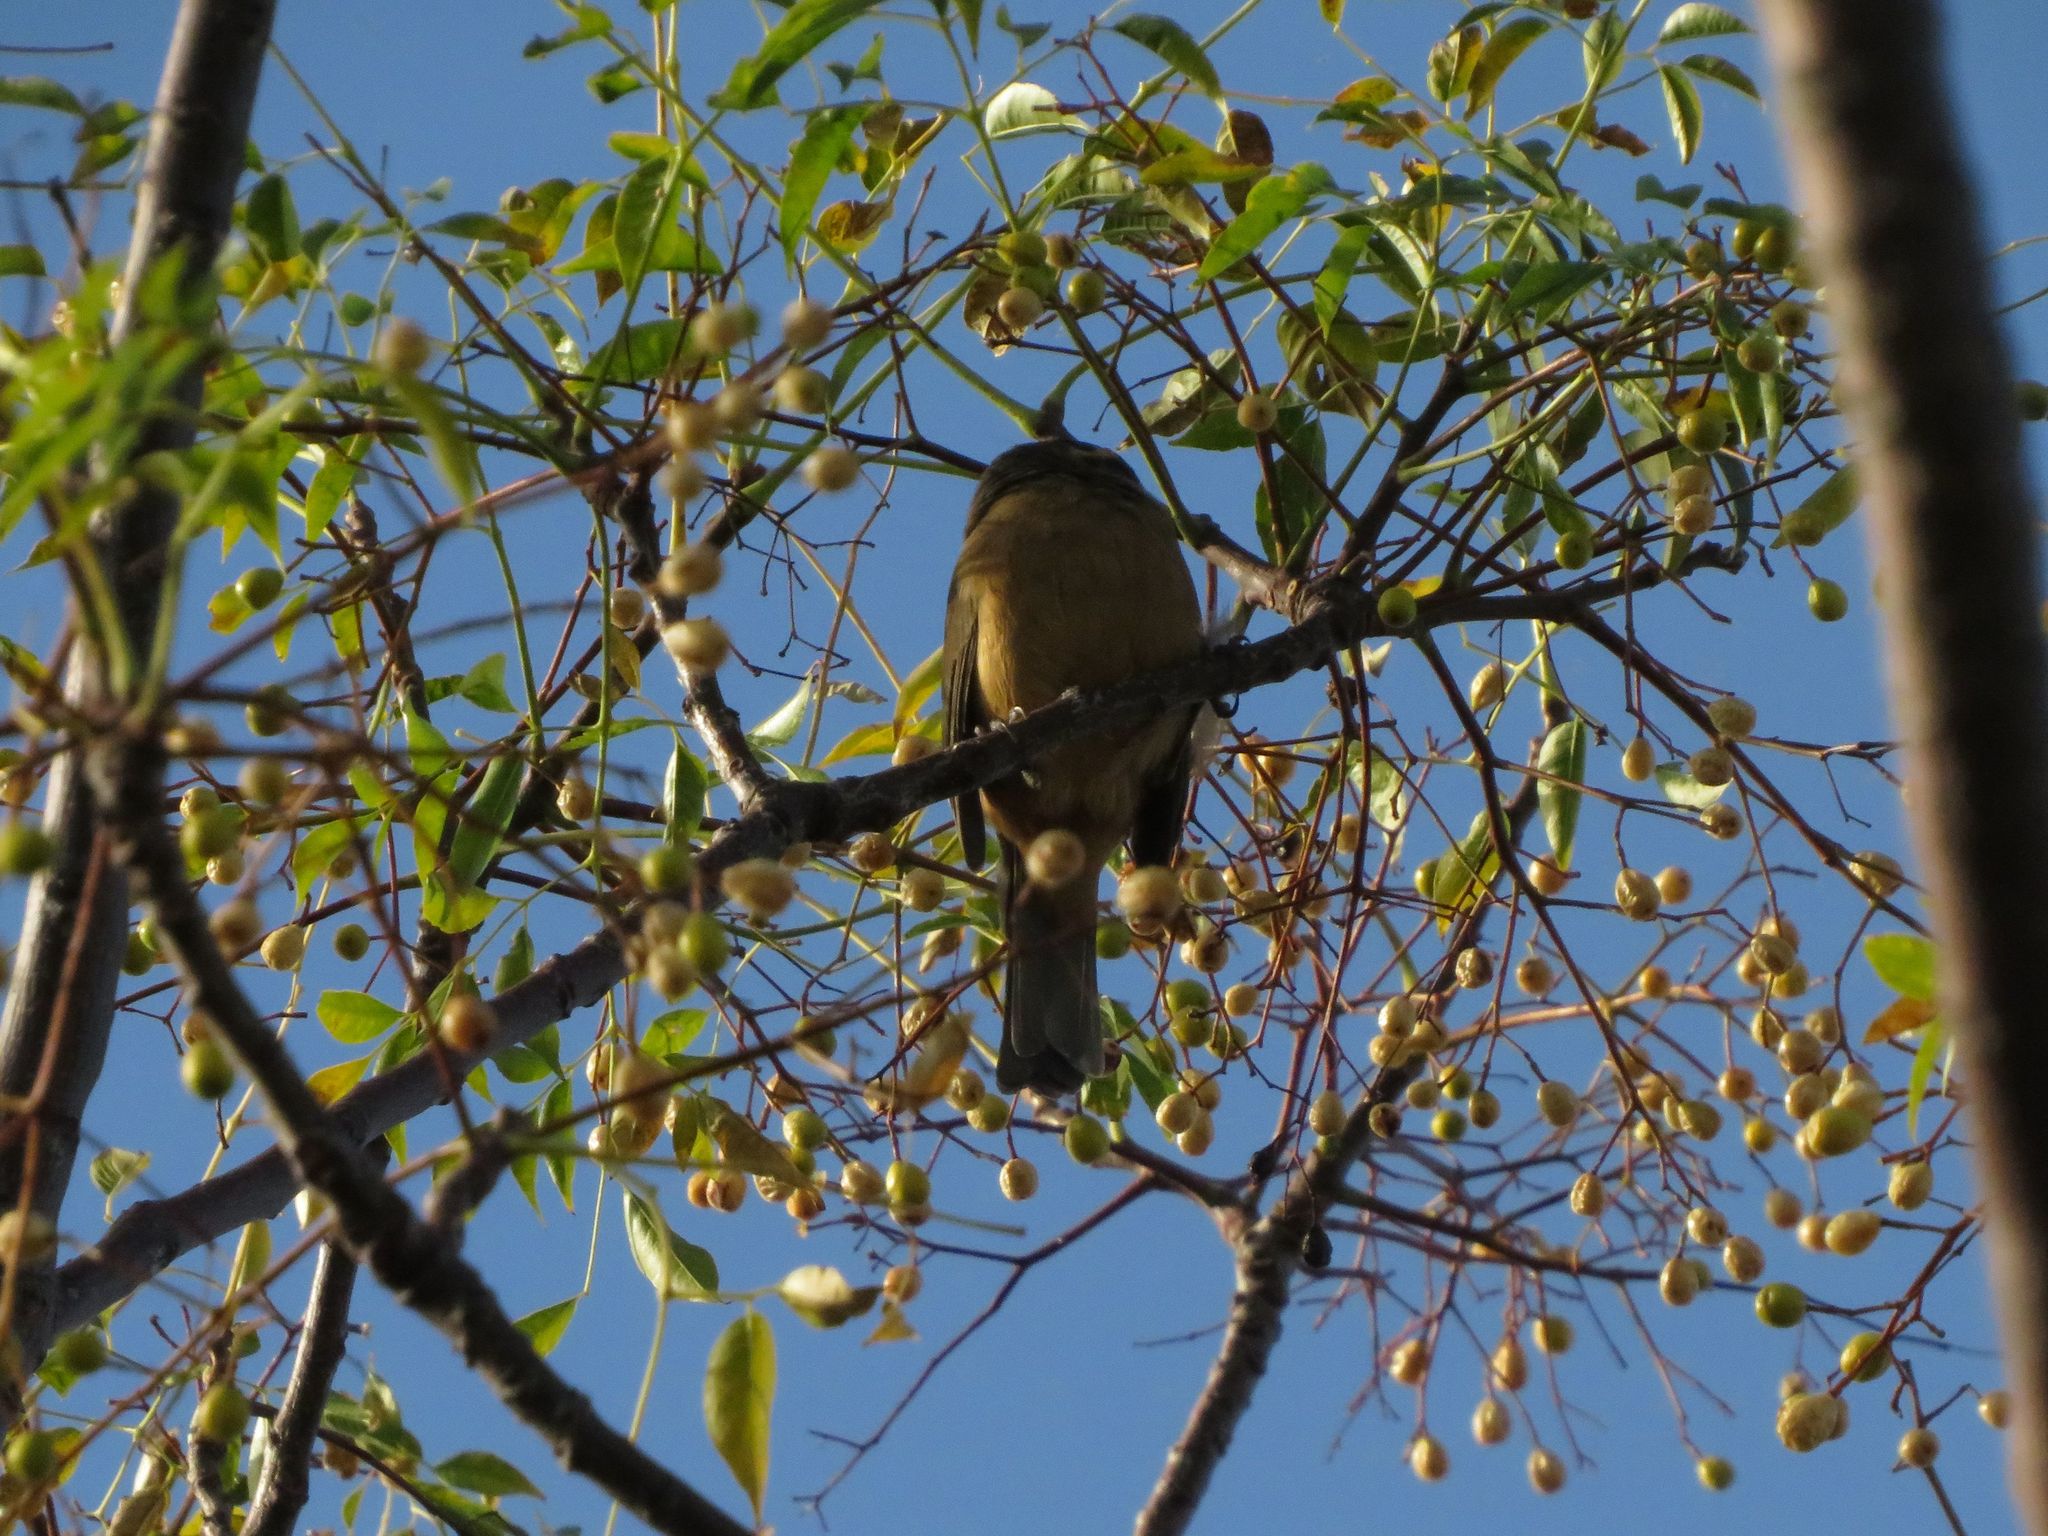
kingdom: Animalia
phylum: Chordata
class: Aves
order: Passeriformes
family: Thraupidae
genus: Saltator
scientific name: Saltator aurantiirostris
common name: Golden-billed saltator
